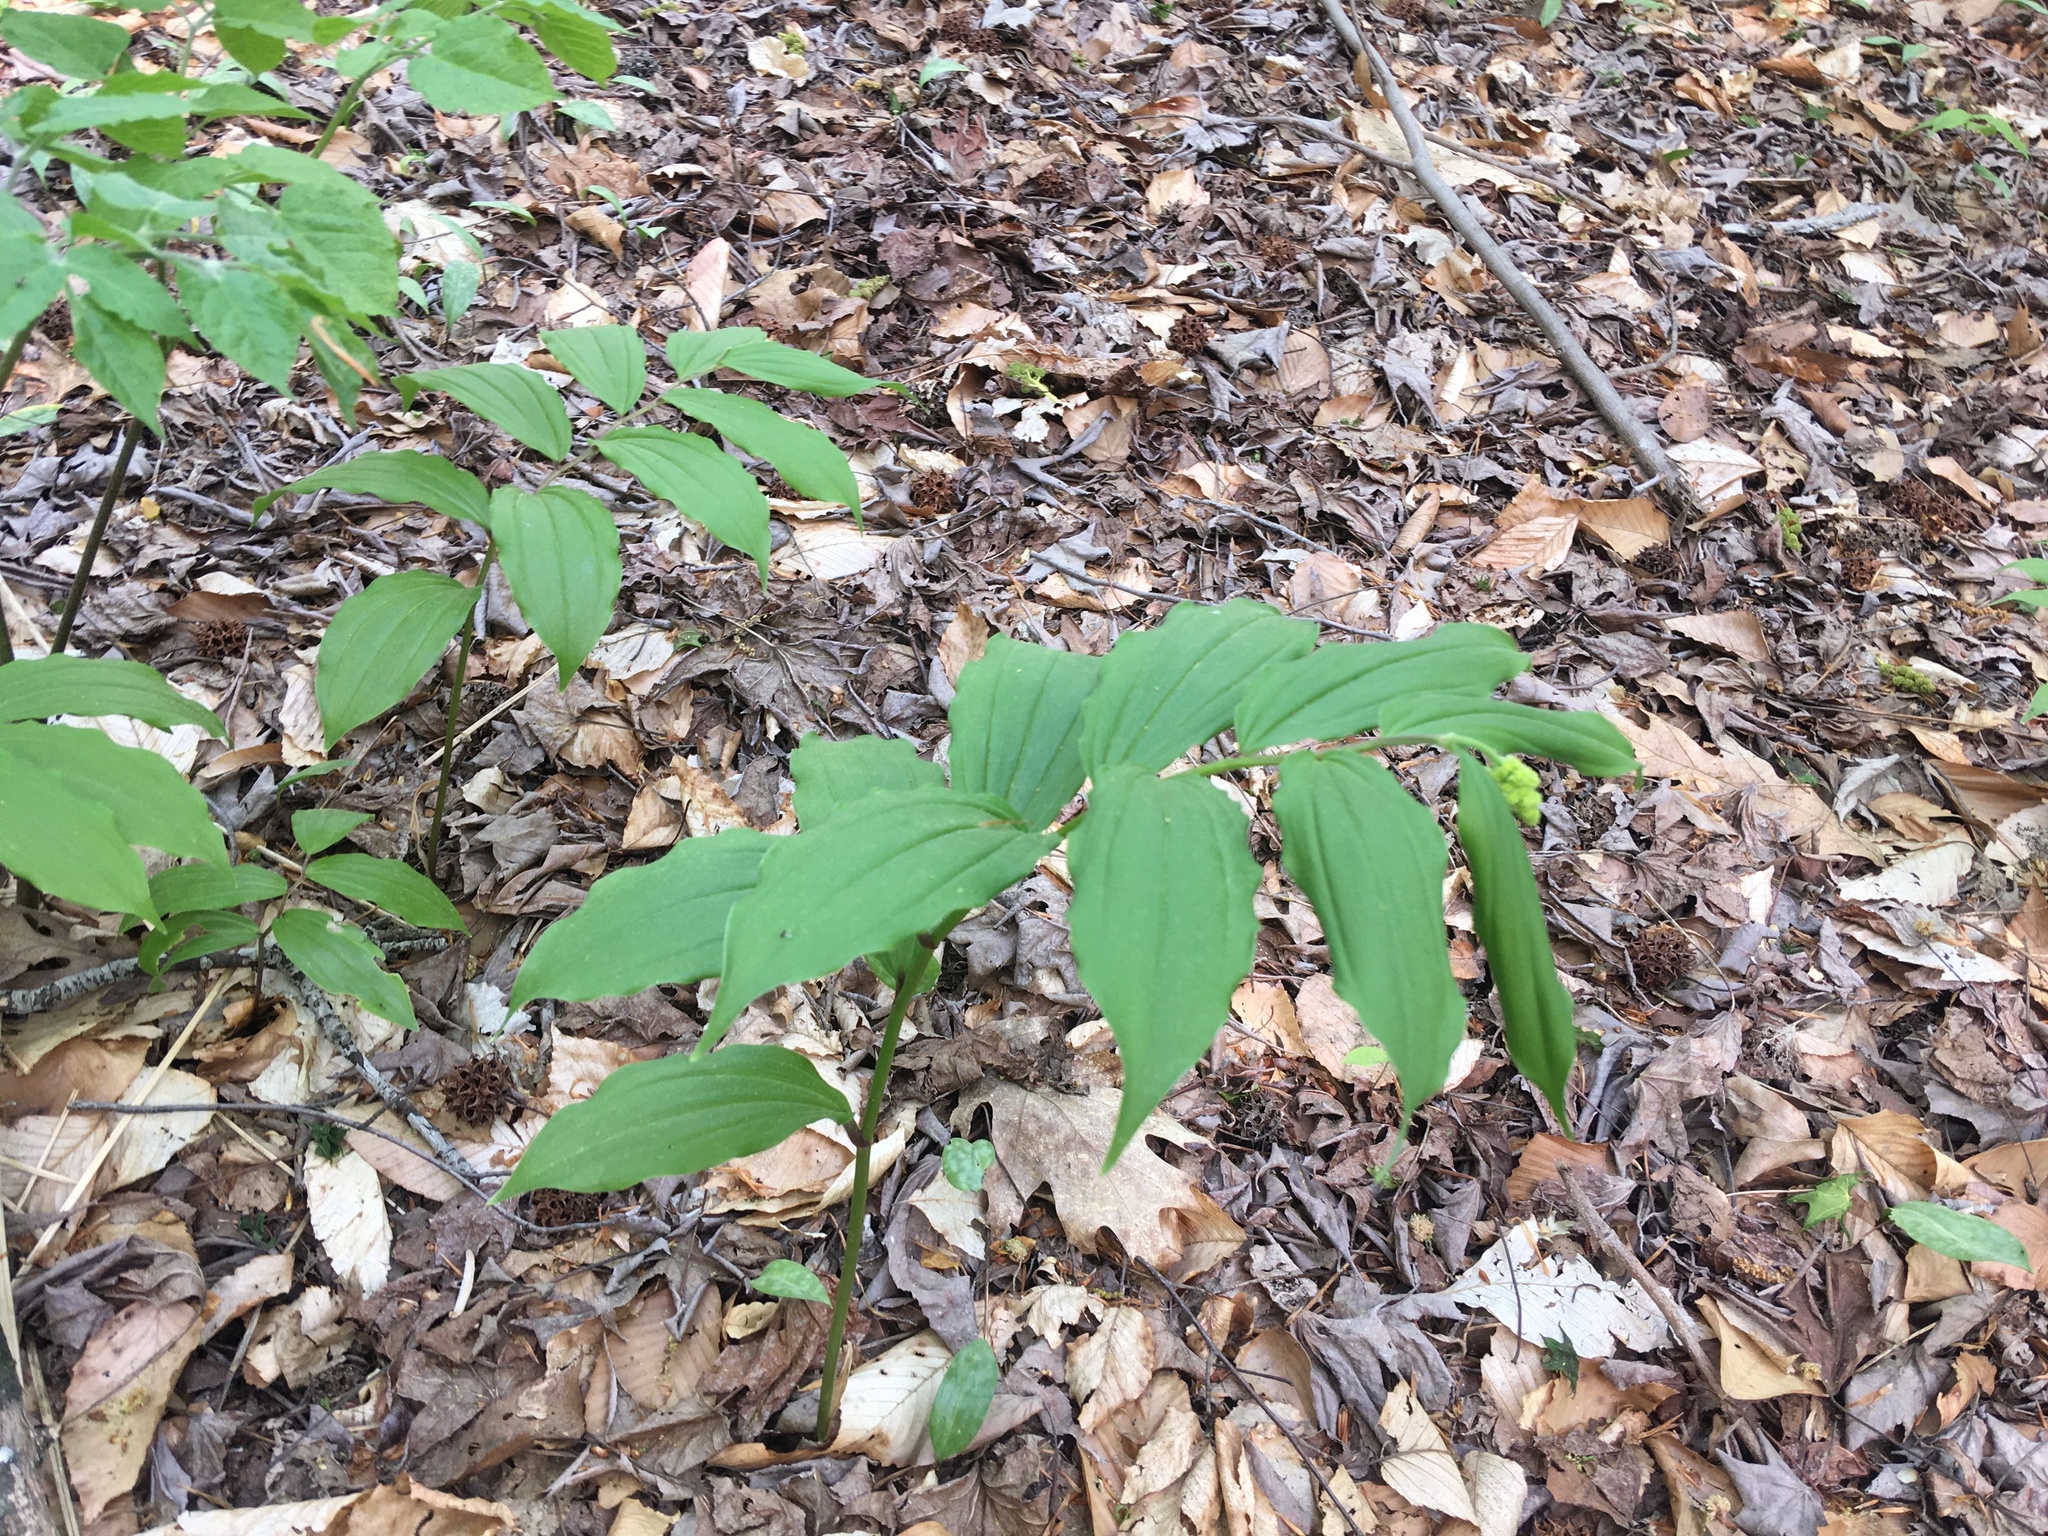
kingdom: Plantae
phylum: Tracheophyta
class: Liliopsida
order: Asparagales
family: Asparagaceae
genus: Maianthemum
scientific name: Maianthemum racemosum
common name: False spikenard
